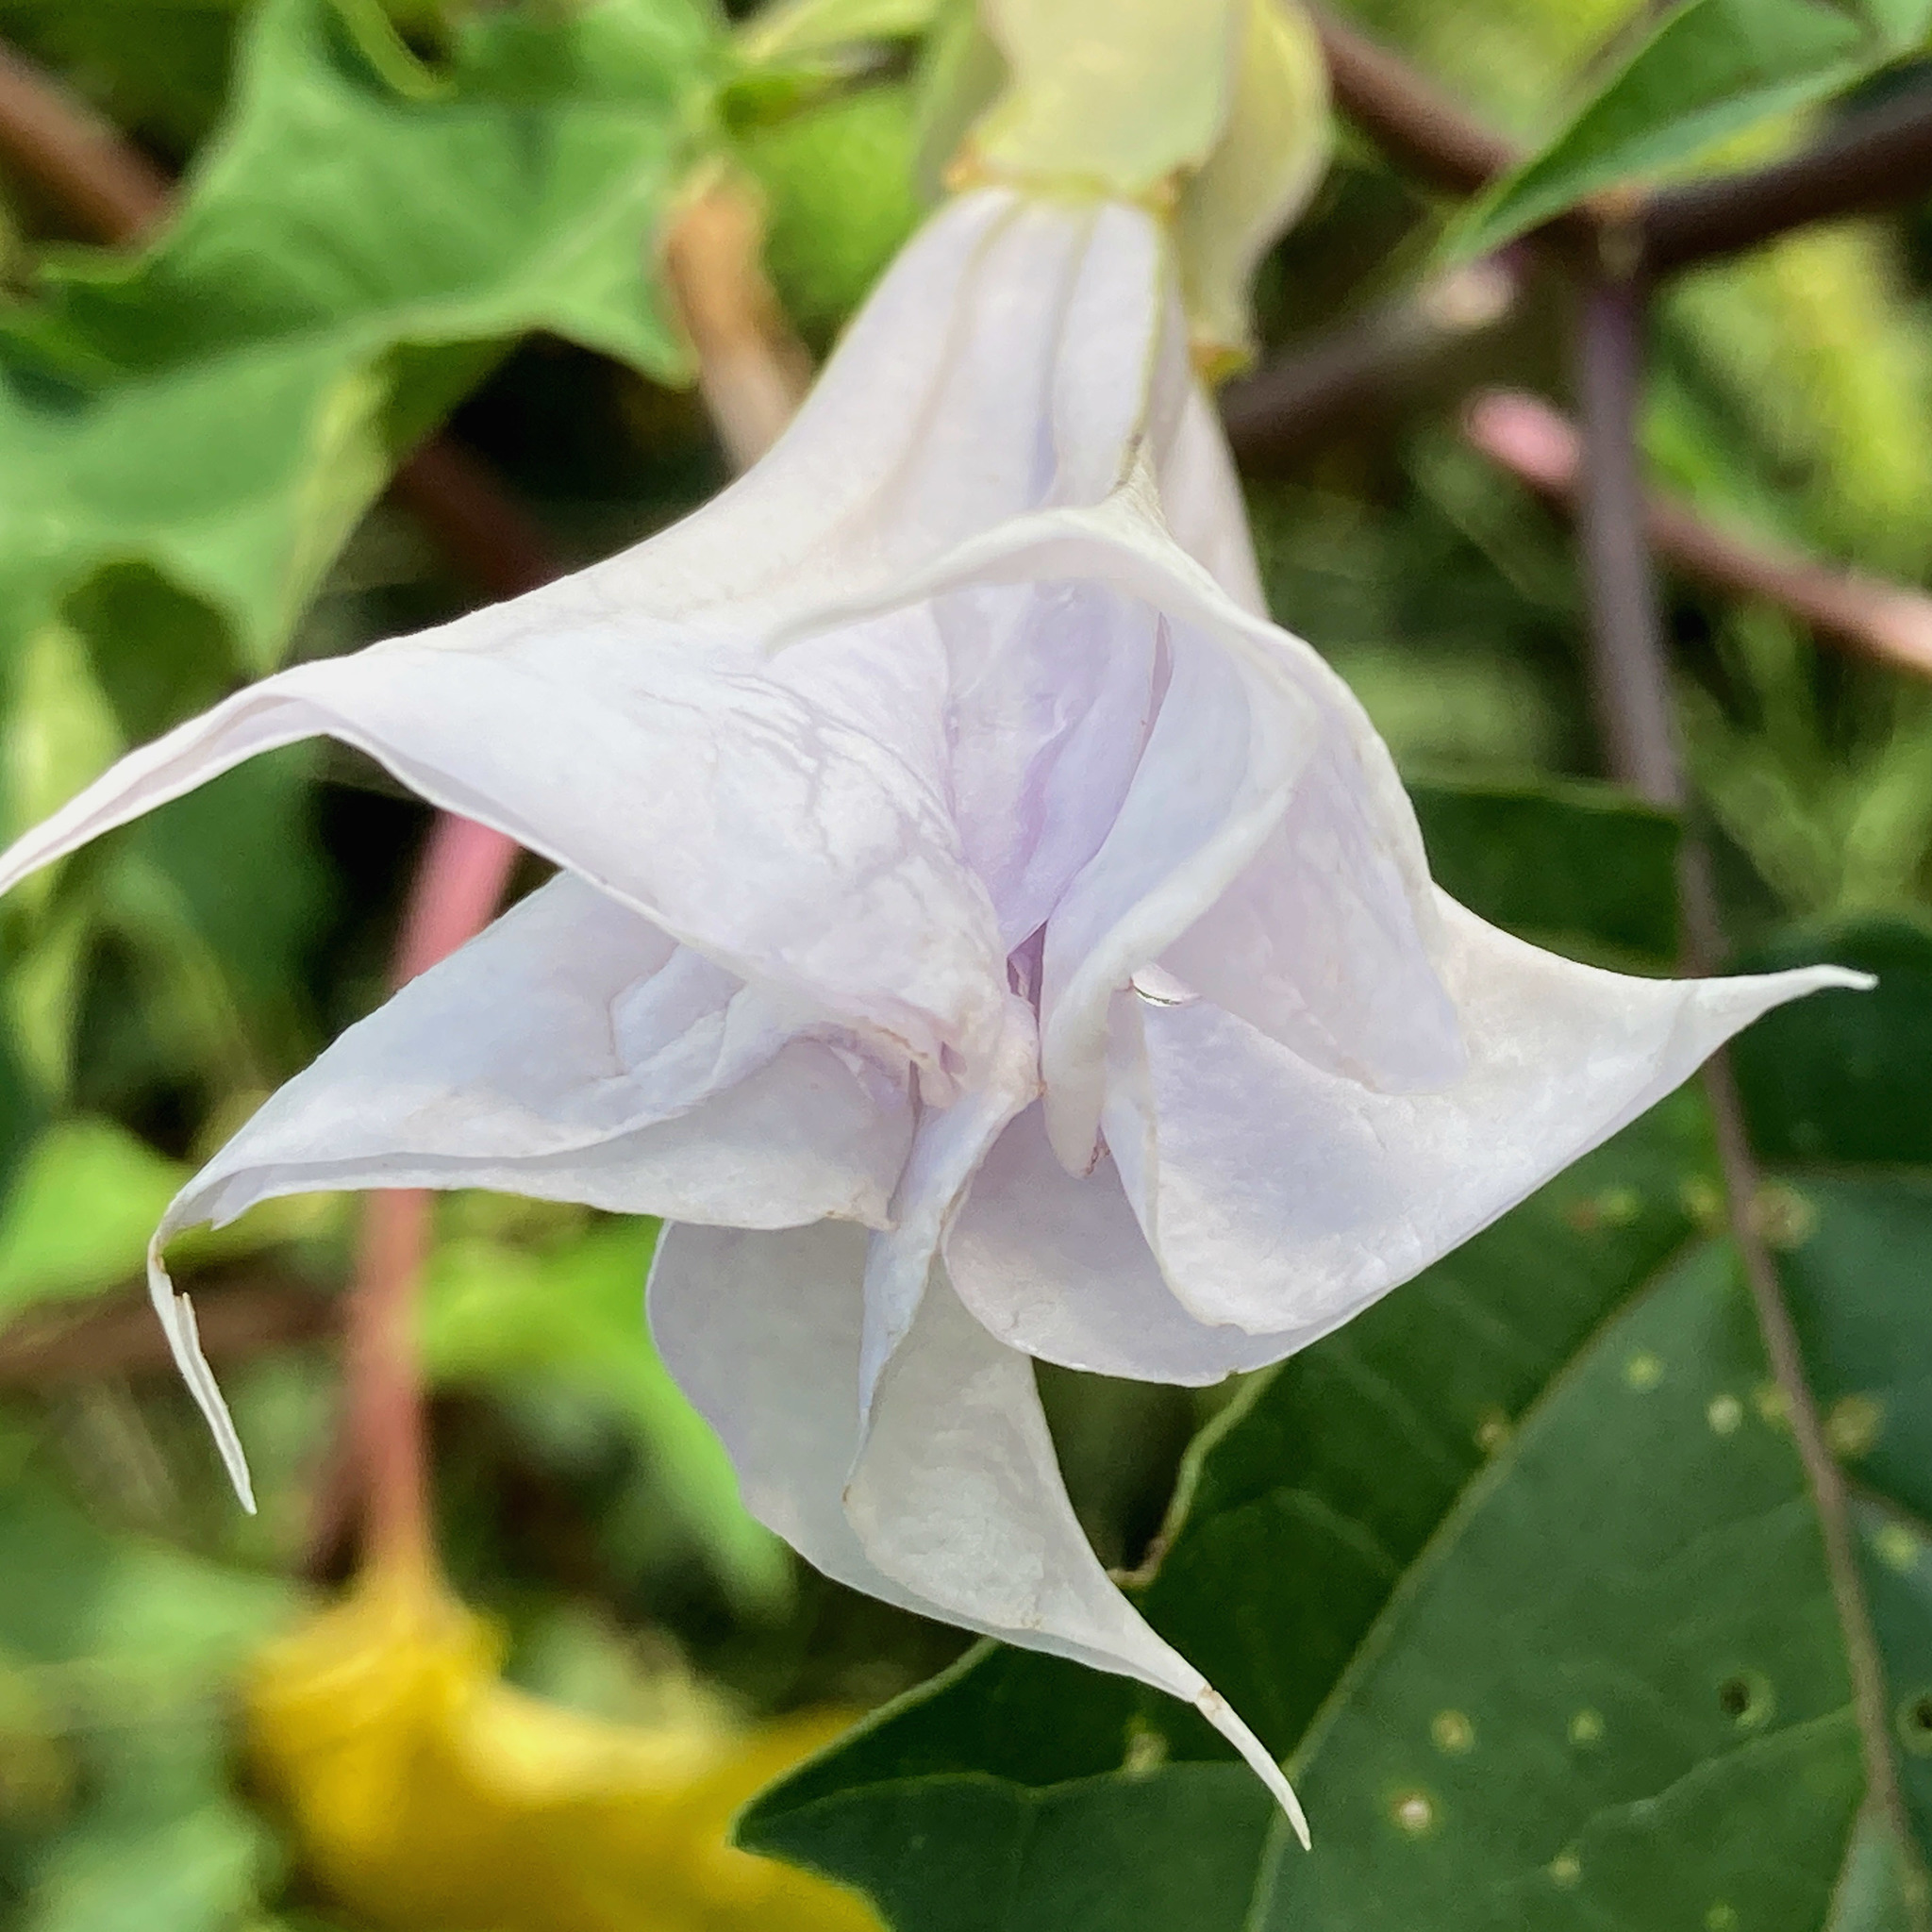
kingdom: Plantae
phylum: Tracheophyta
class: Magnoliopsida
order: Solanales
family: Solanaceae
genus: Datura
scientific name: Datura stramonium
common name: Thorn-apple
